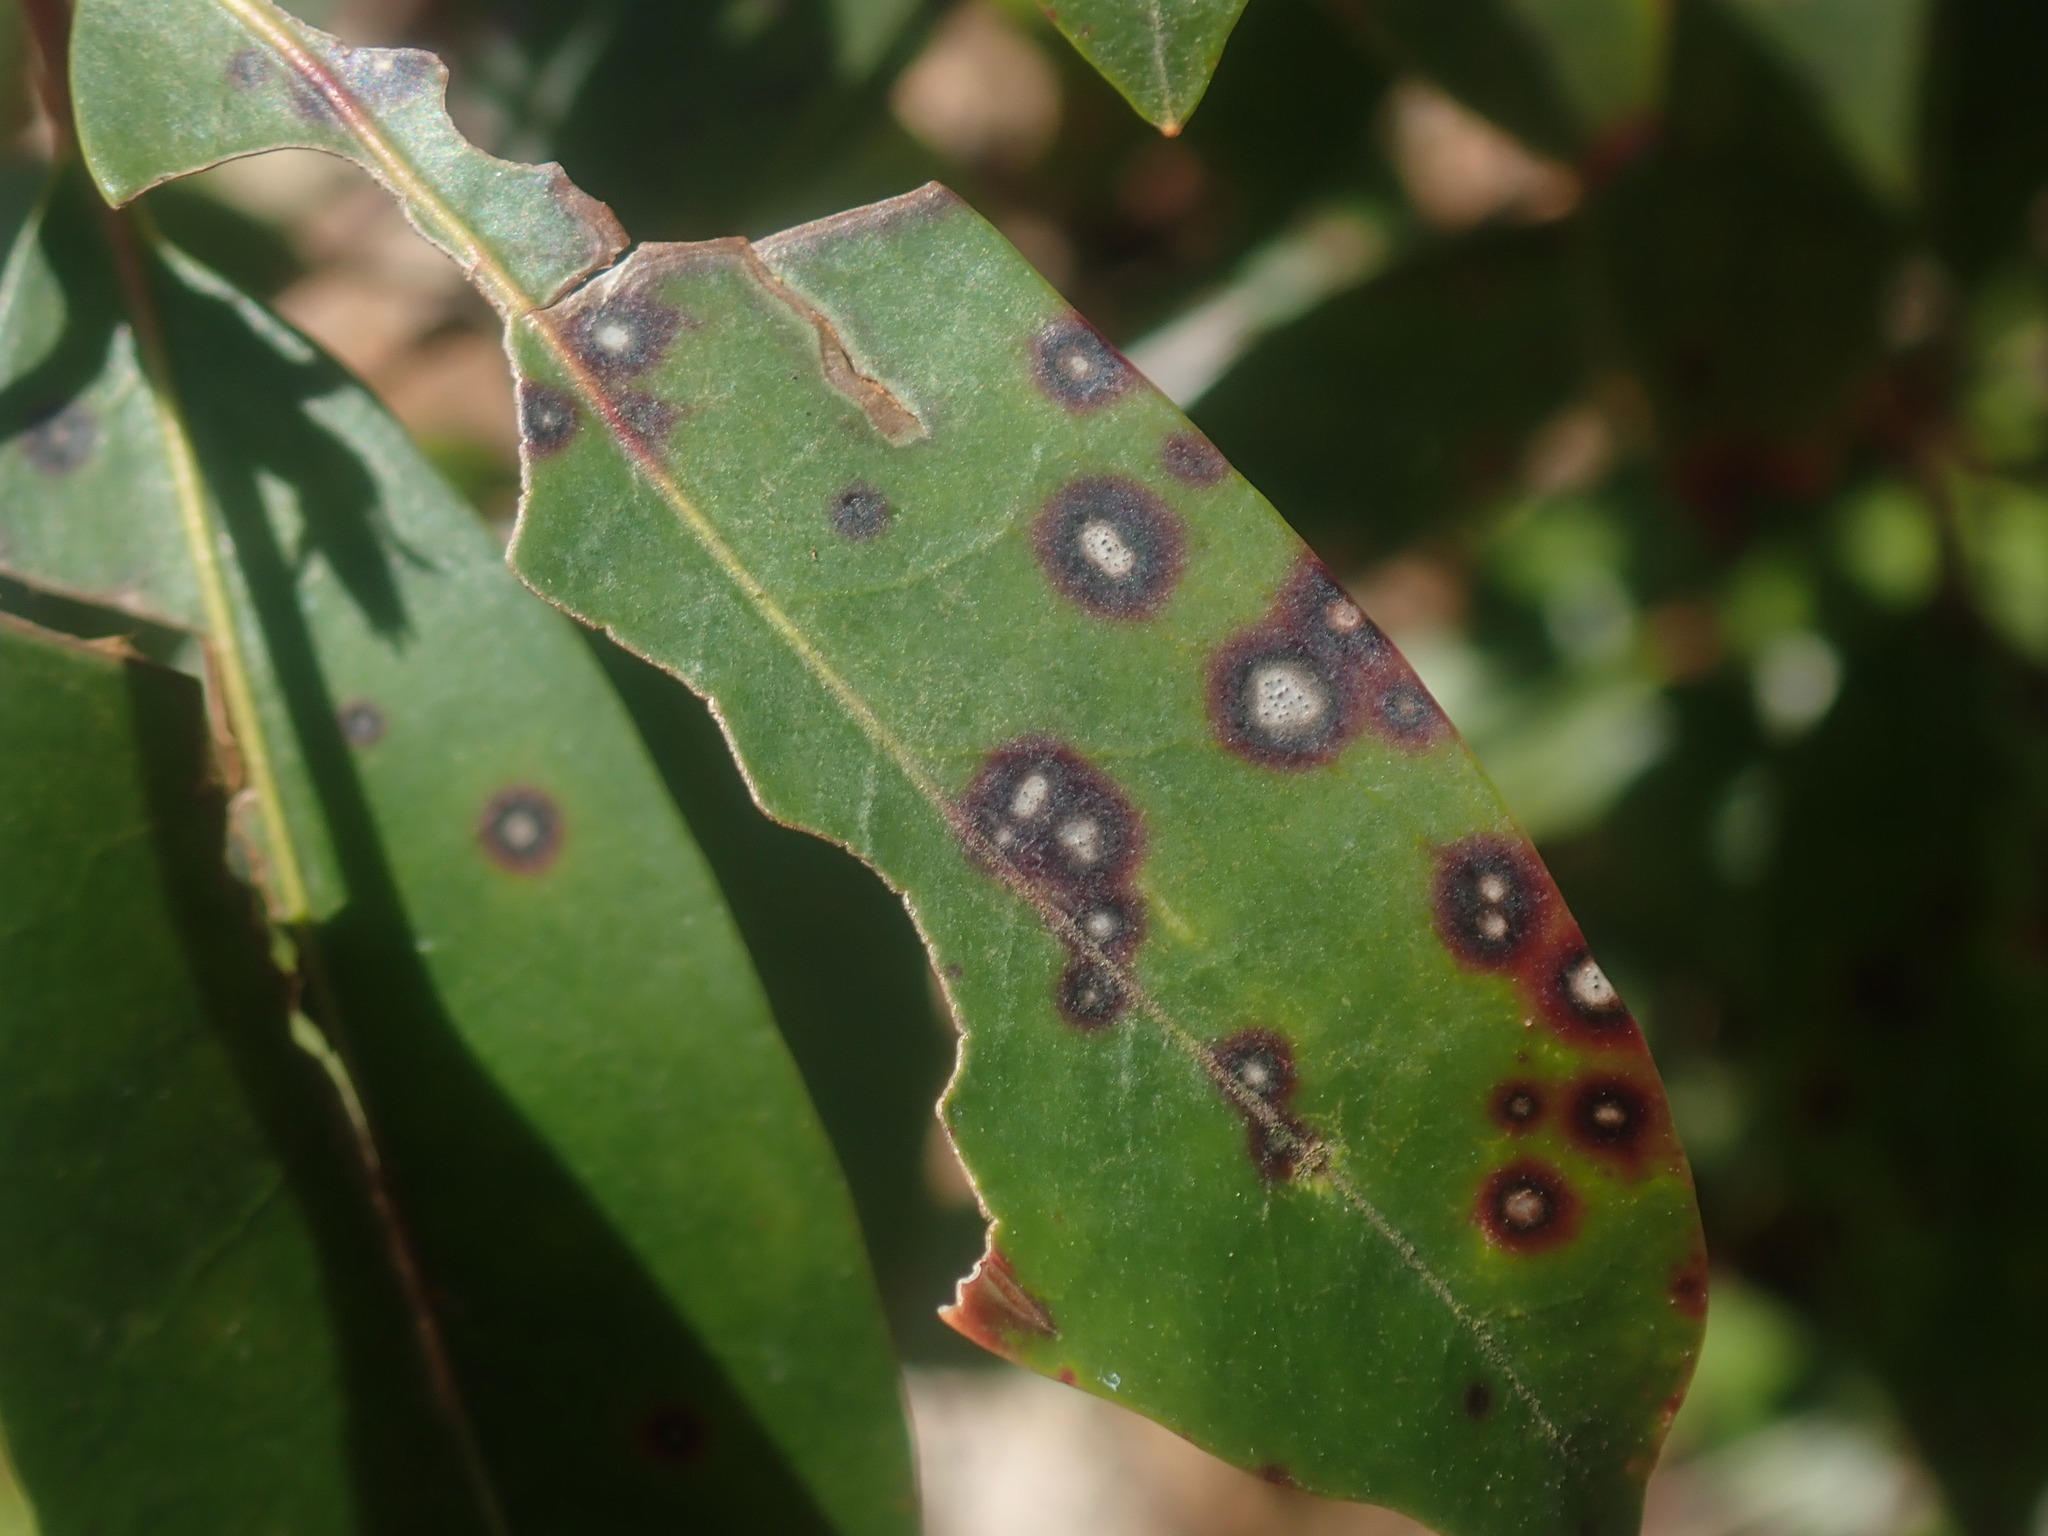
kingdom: Fungi
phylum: Ascomycota
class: Dothideomycetes
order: Mycosphaerellales
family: Mycosphaerellaceae
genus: Mycosphaerella
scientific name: Mycosphaerella colorata
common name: Mountain laurel leaf spot
